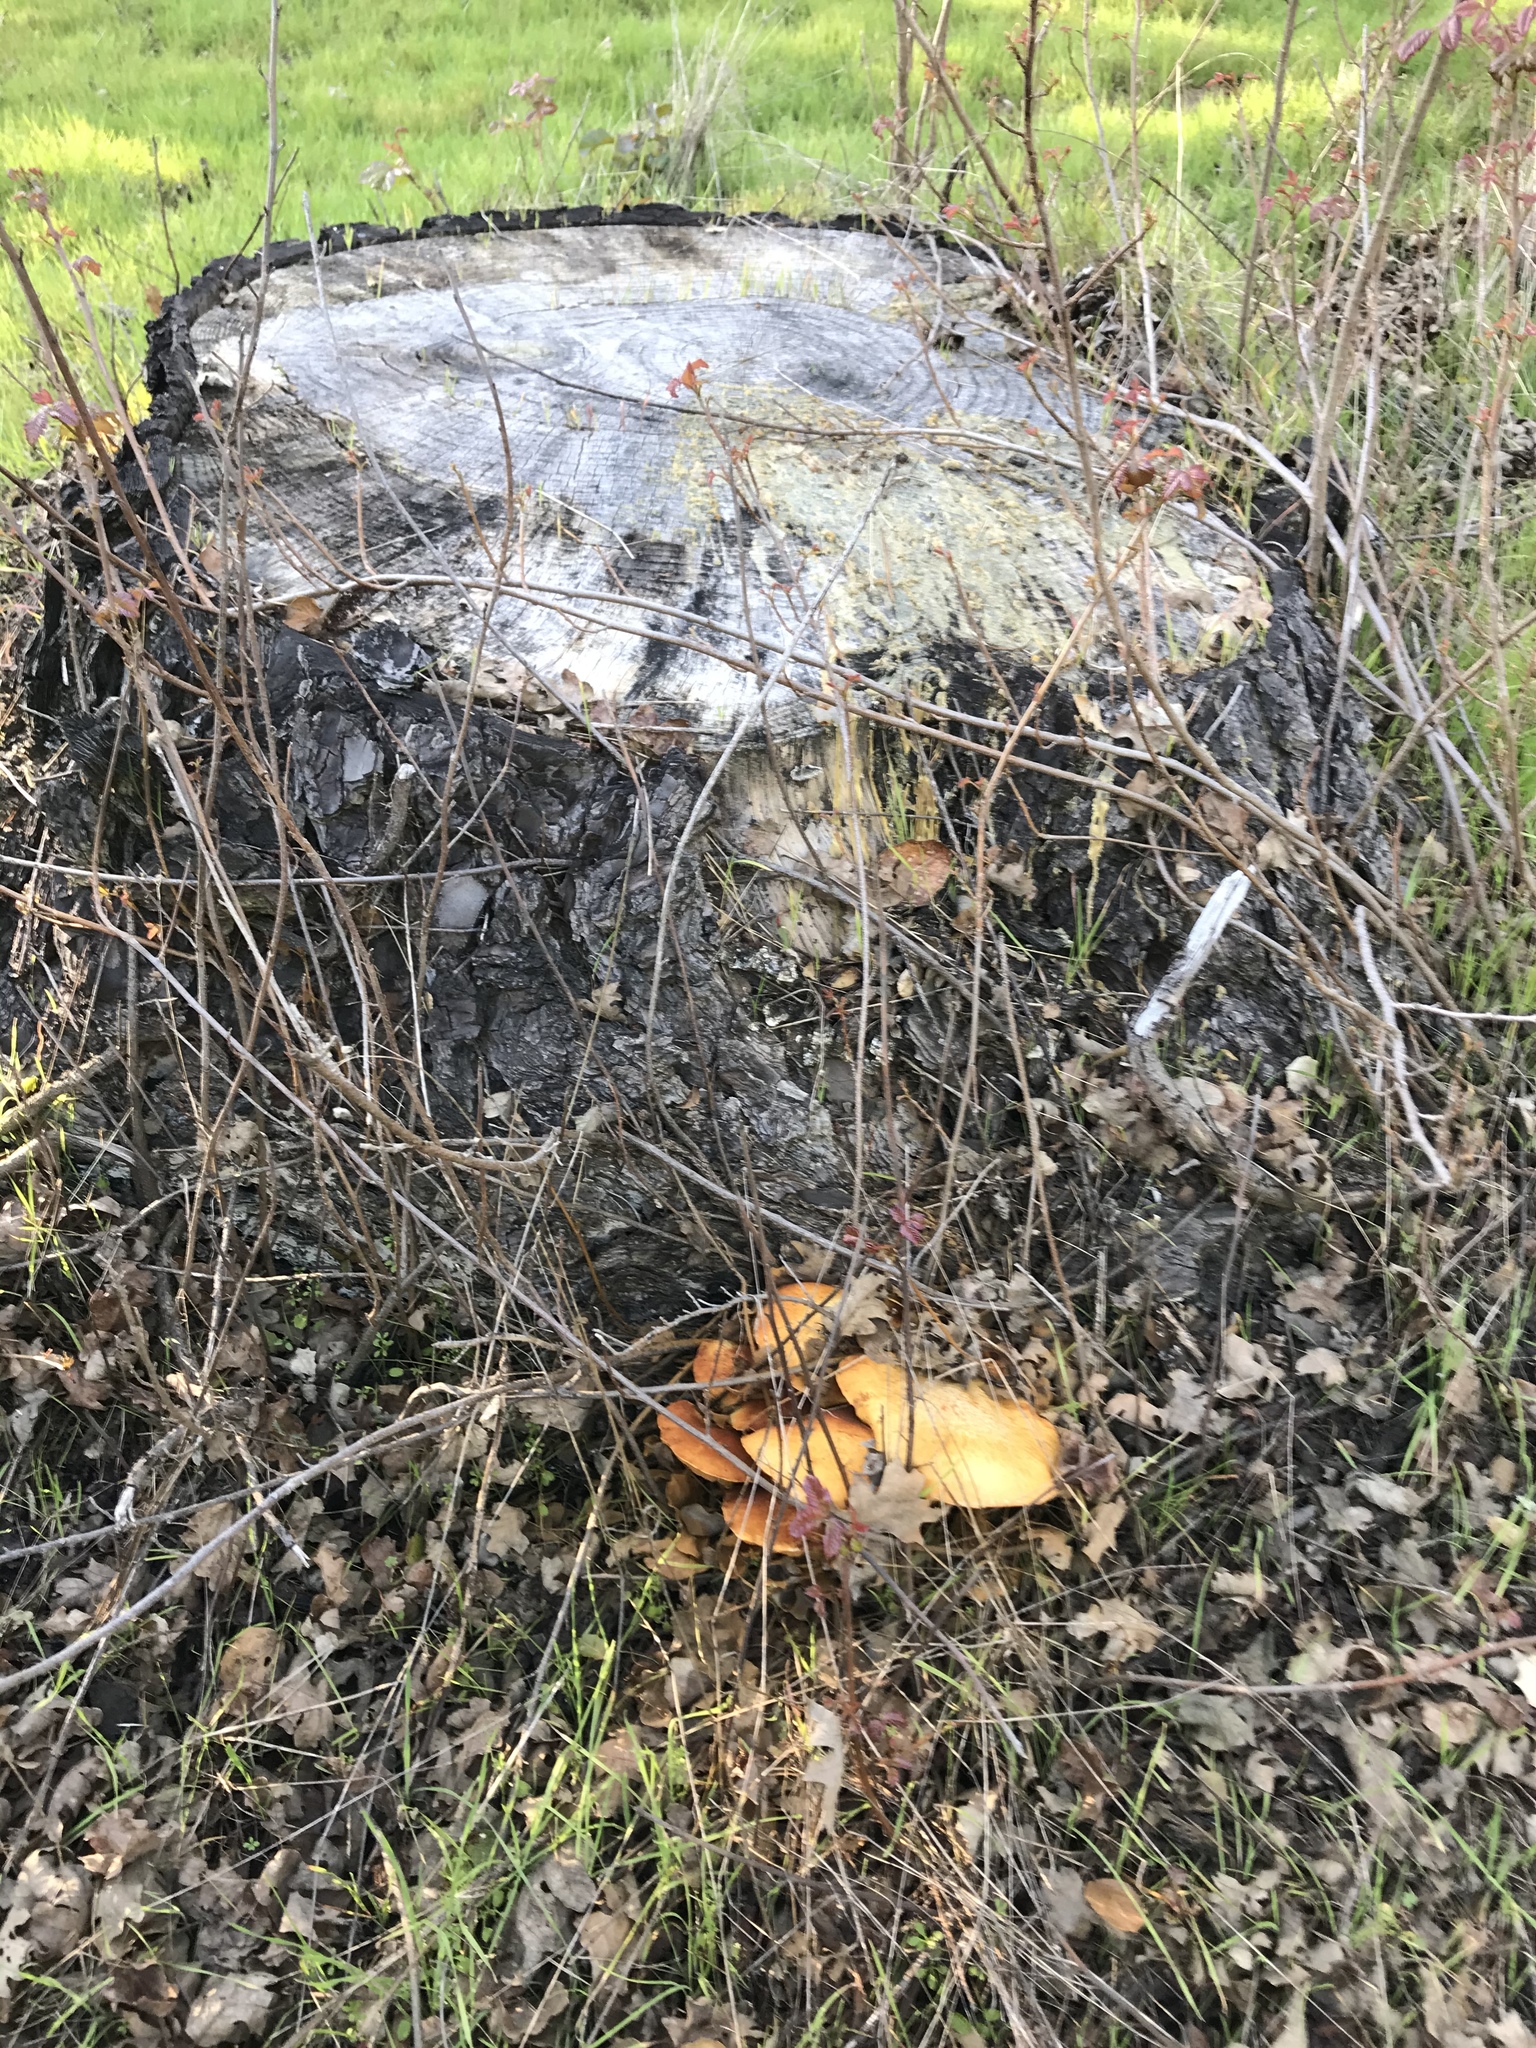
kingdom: Fungi
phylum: Basidiomycota
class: Agaricomycetes
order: Agaricales
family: Hymenogastraceae
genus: Gymnopilus
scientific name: Gymnopilus ventricosus
